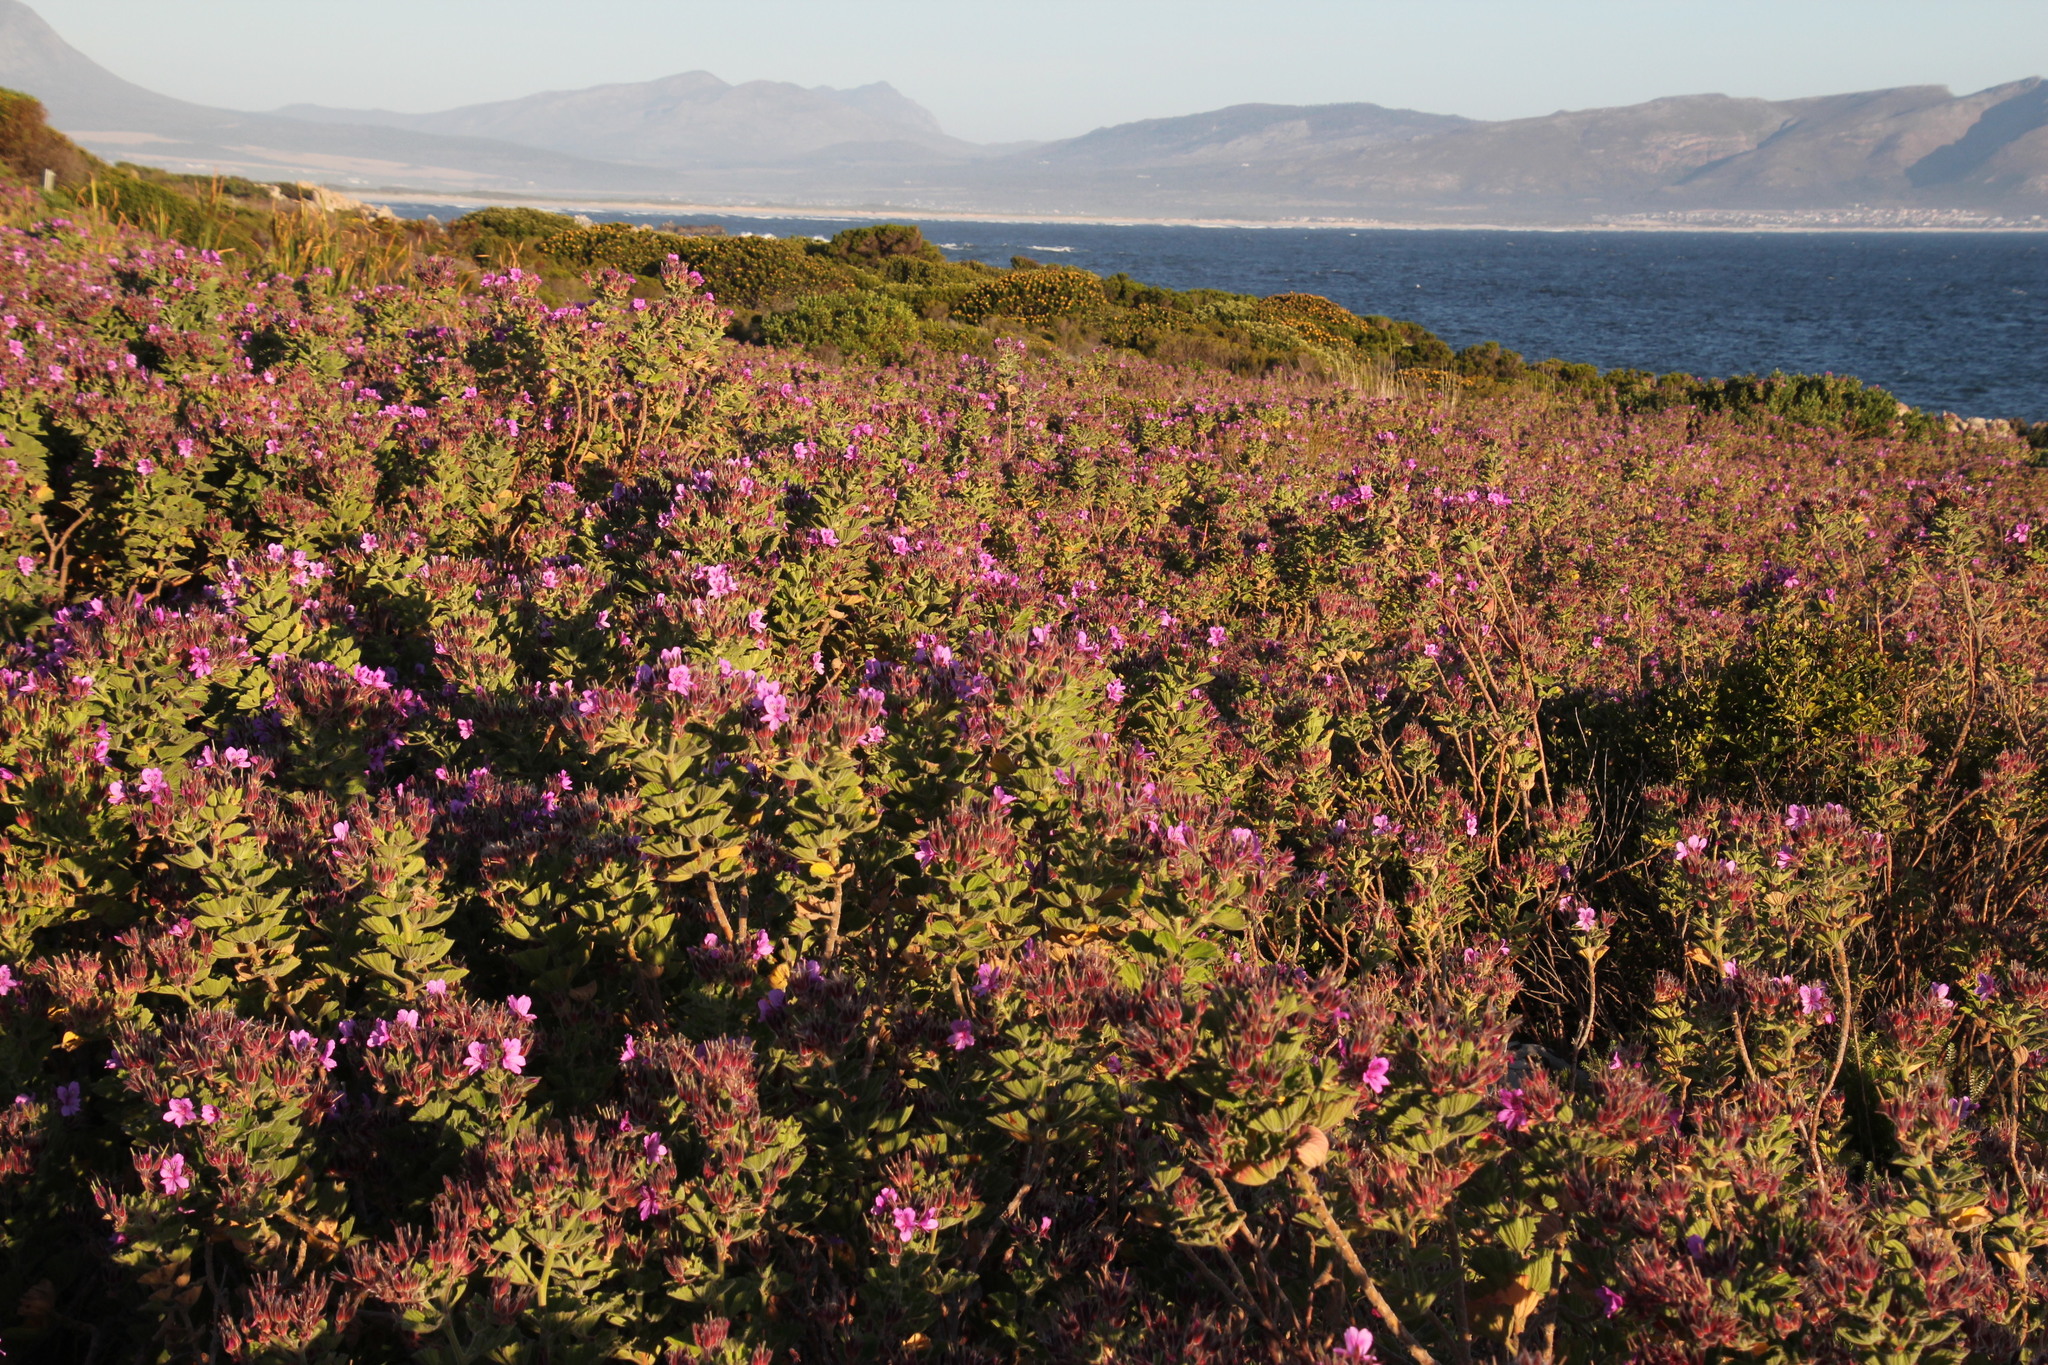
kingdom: Plantae
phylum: Tracheophyta
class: Magnoliopsida
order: Geraniales
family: Geraniaceae
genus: Pelargonium
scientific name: Pelargonium cucullatum
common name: Tree pelargonium
